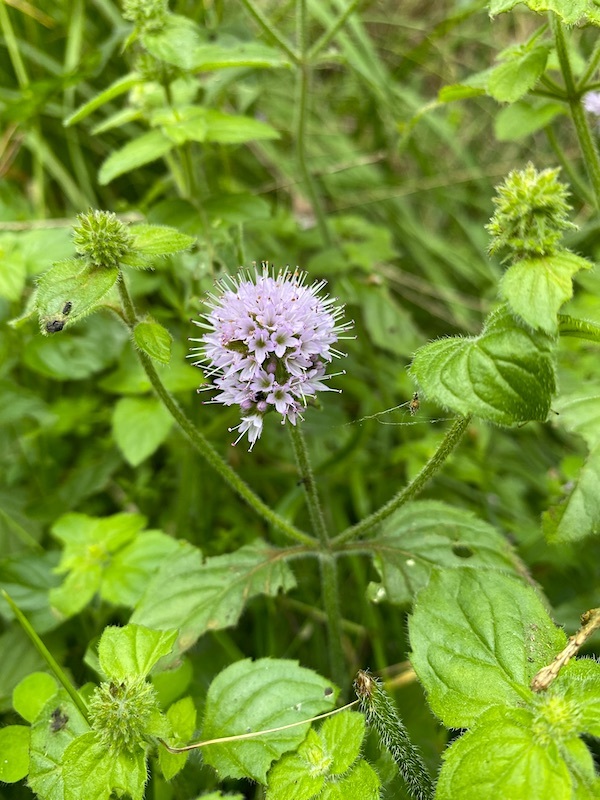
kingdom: Plantae
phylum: Tracheophyta
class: Magnoliopsida
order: Lamiales
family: Lamiaceae
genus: Mentha
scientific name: Mentha aquatica
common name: Water mint
